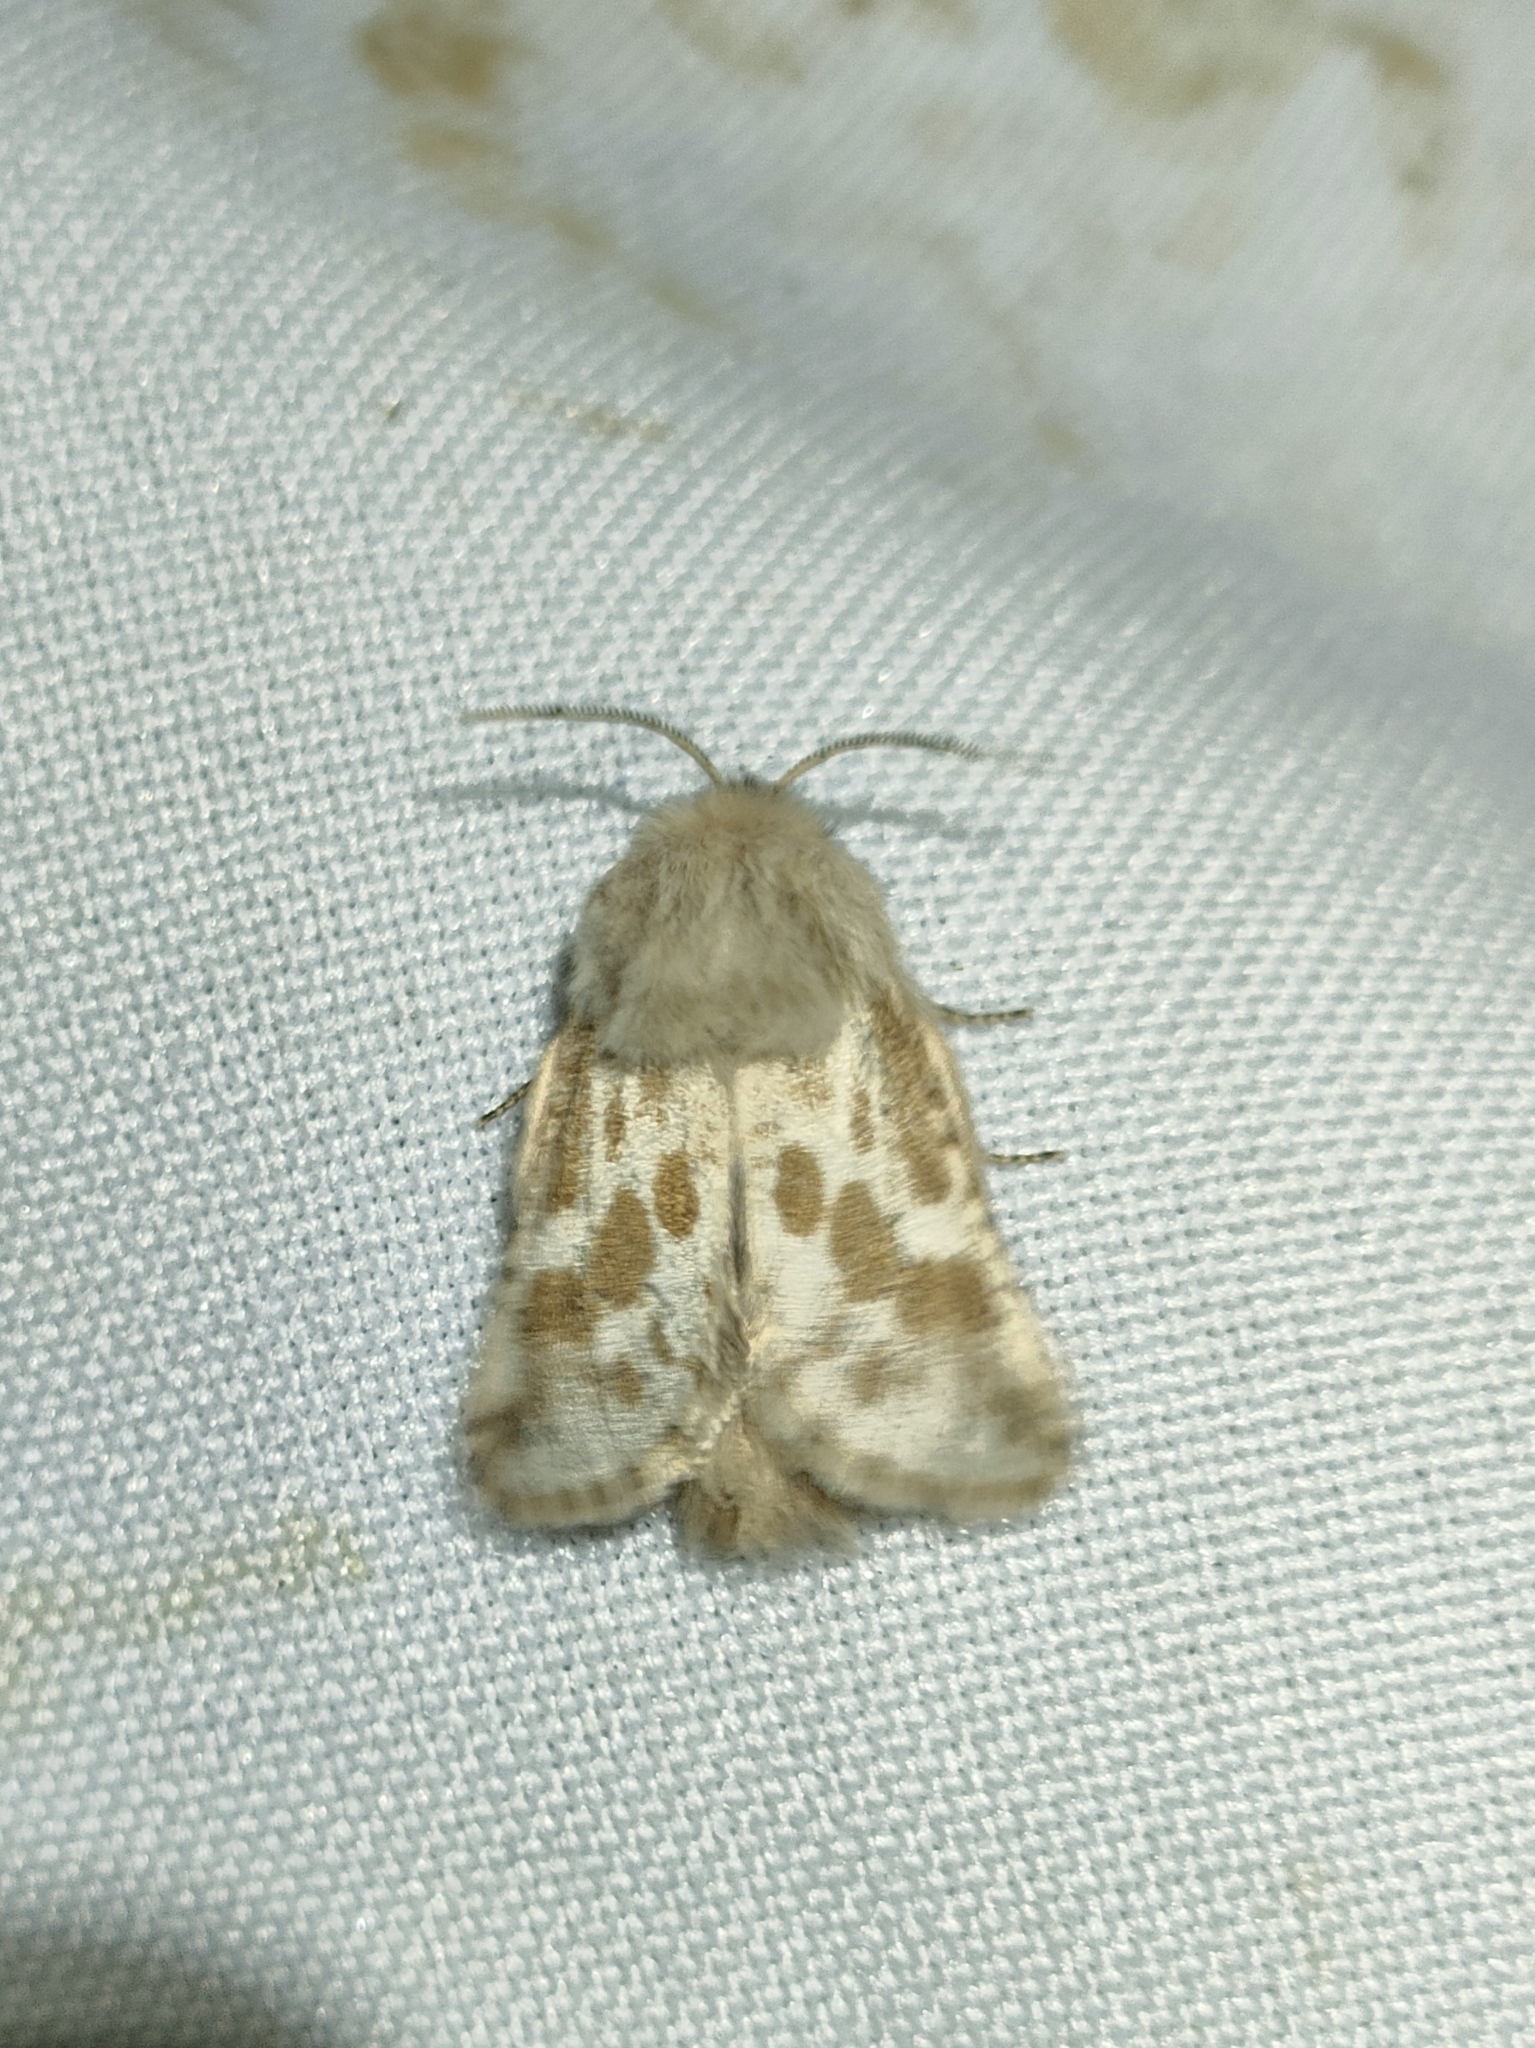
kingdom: Animalia
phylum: Arthropoda
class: Insecta
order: Lepidoptera
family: Cossidae
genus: Dyspessa
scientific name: Dyspessa ulula
